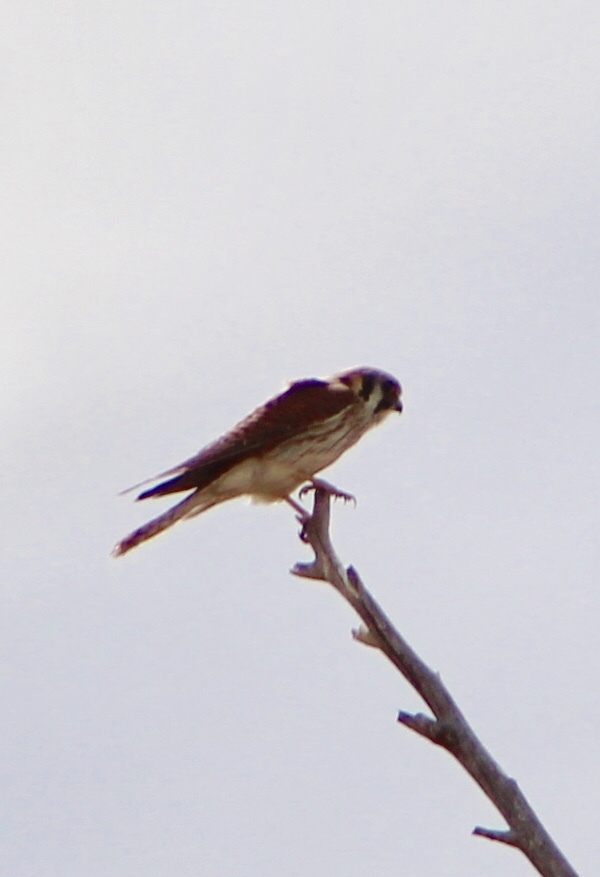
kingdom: Animalia
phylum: Chordata
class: Aves
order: Falconiformes
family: Falconidae
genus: Falco
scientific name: Falco sparverius
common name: American kestrel
